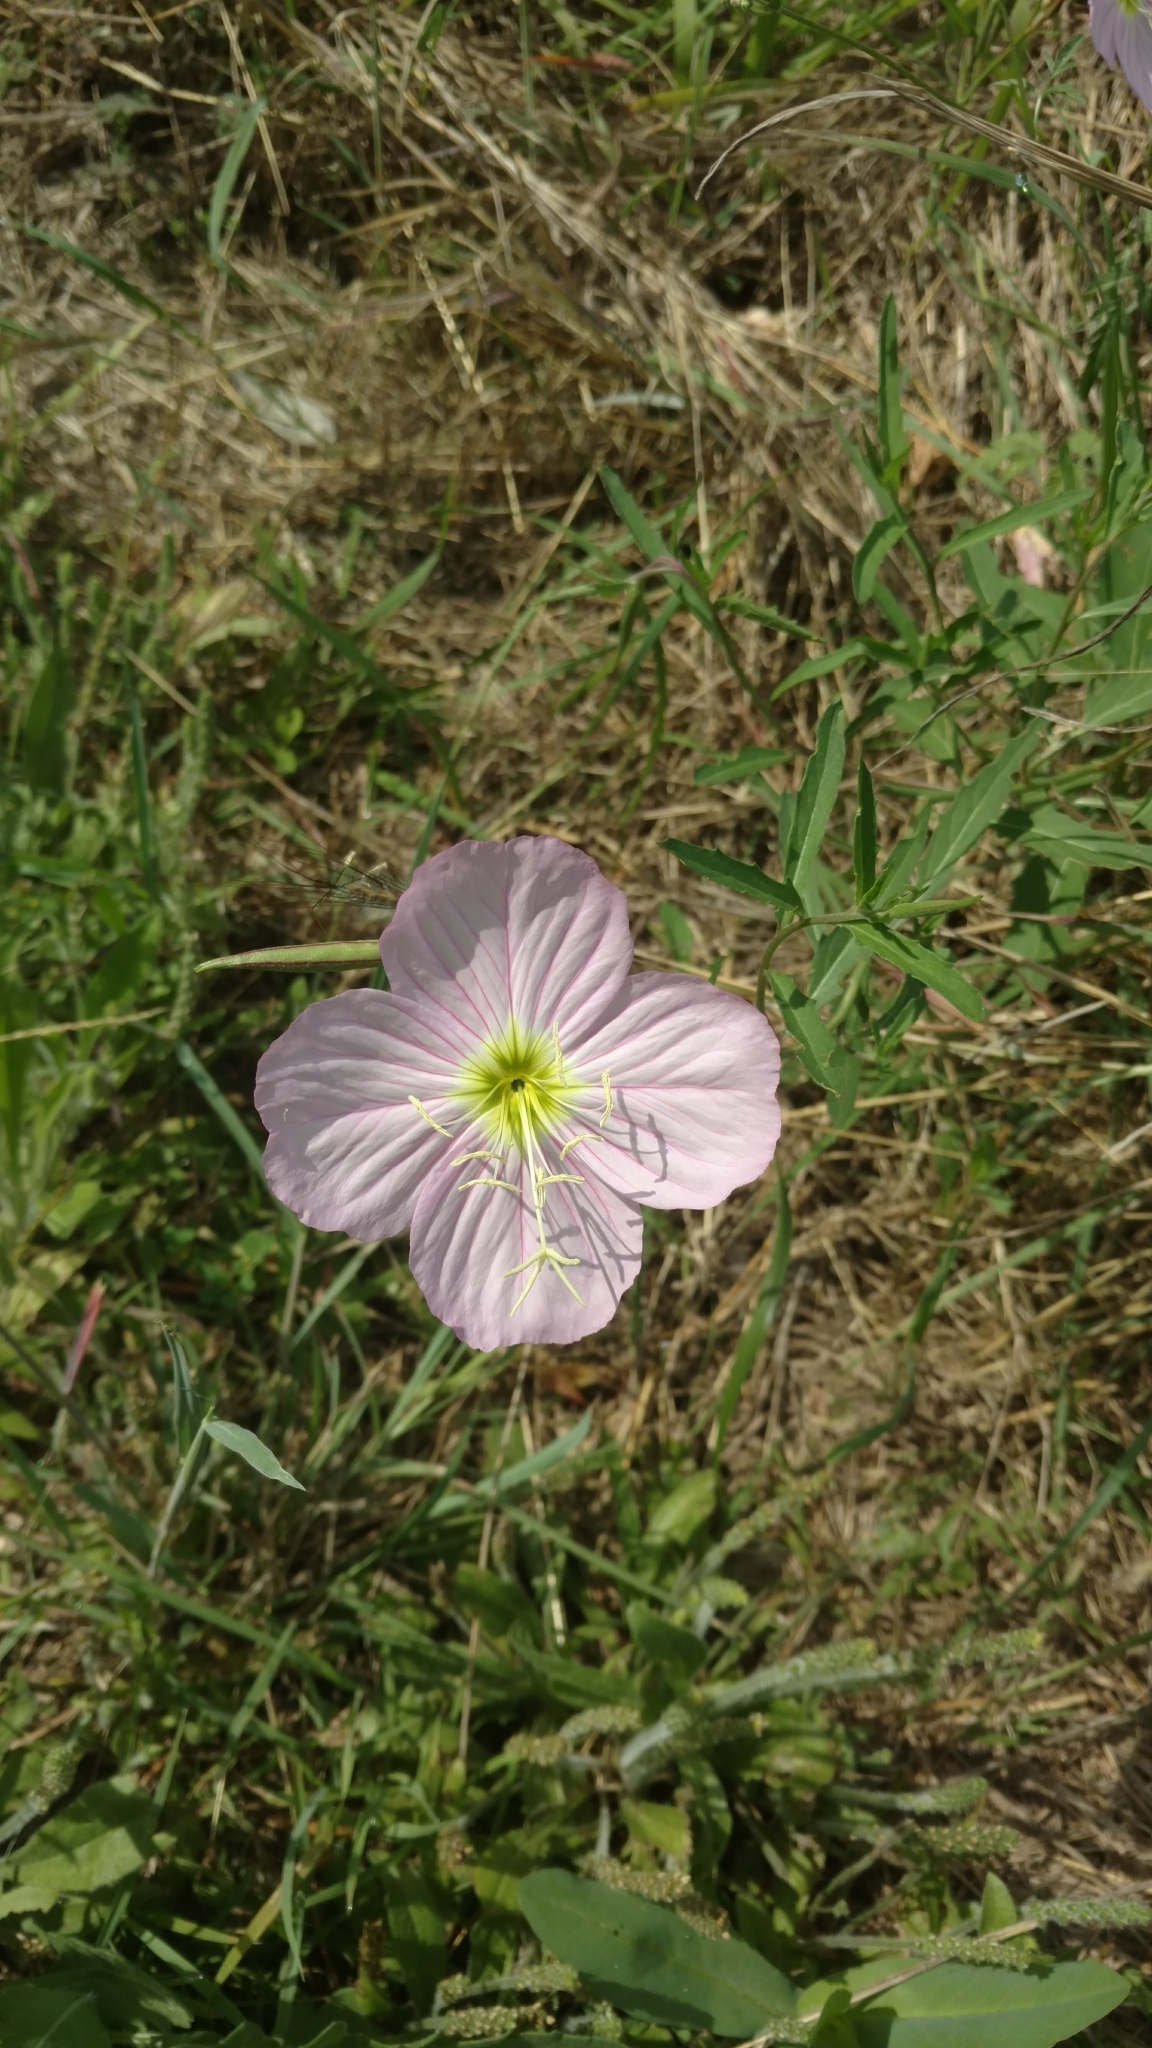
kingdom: Plantae
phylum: Tracheophyta
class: Magnoliopsida
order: Myrtales
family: Onagraceae
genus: Oenothera
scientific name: Oenothera speciosa
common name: White evening-primrose
